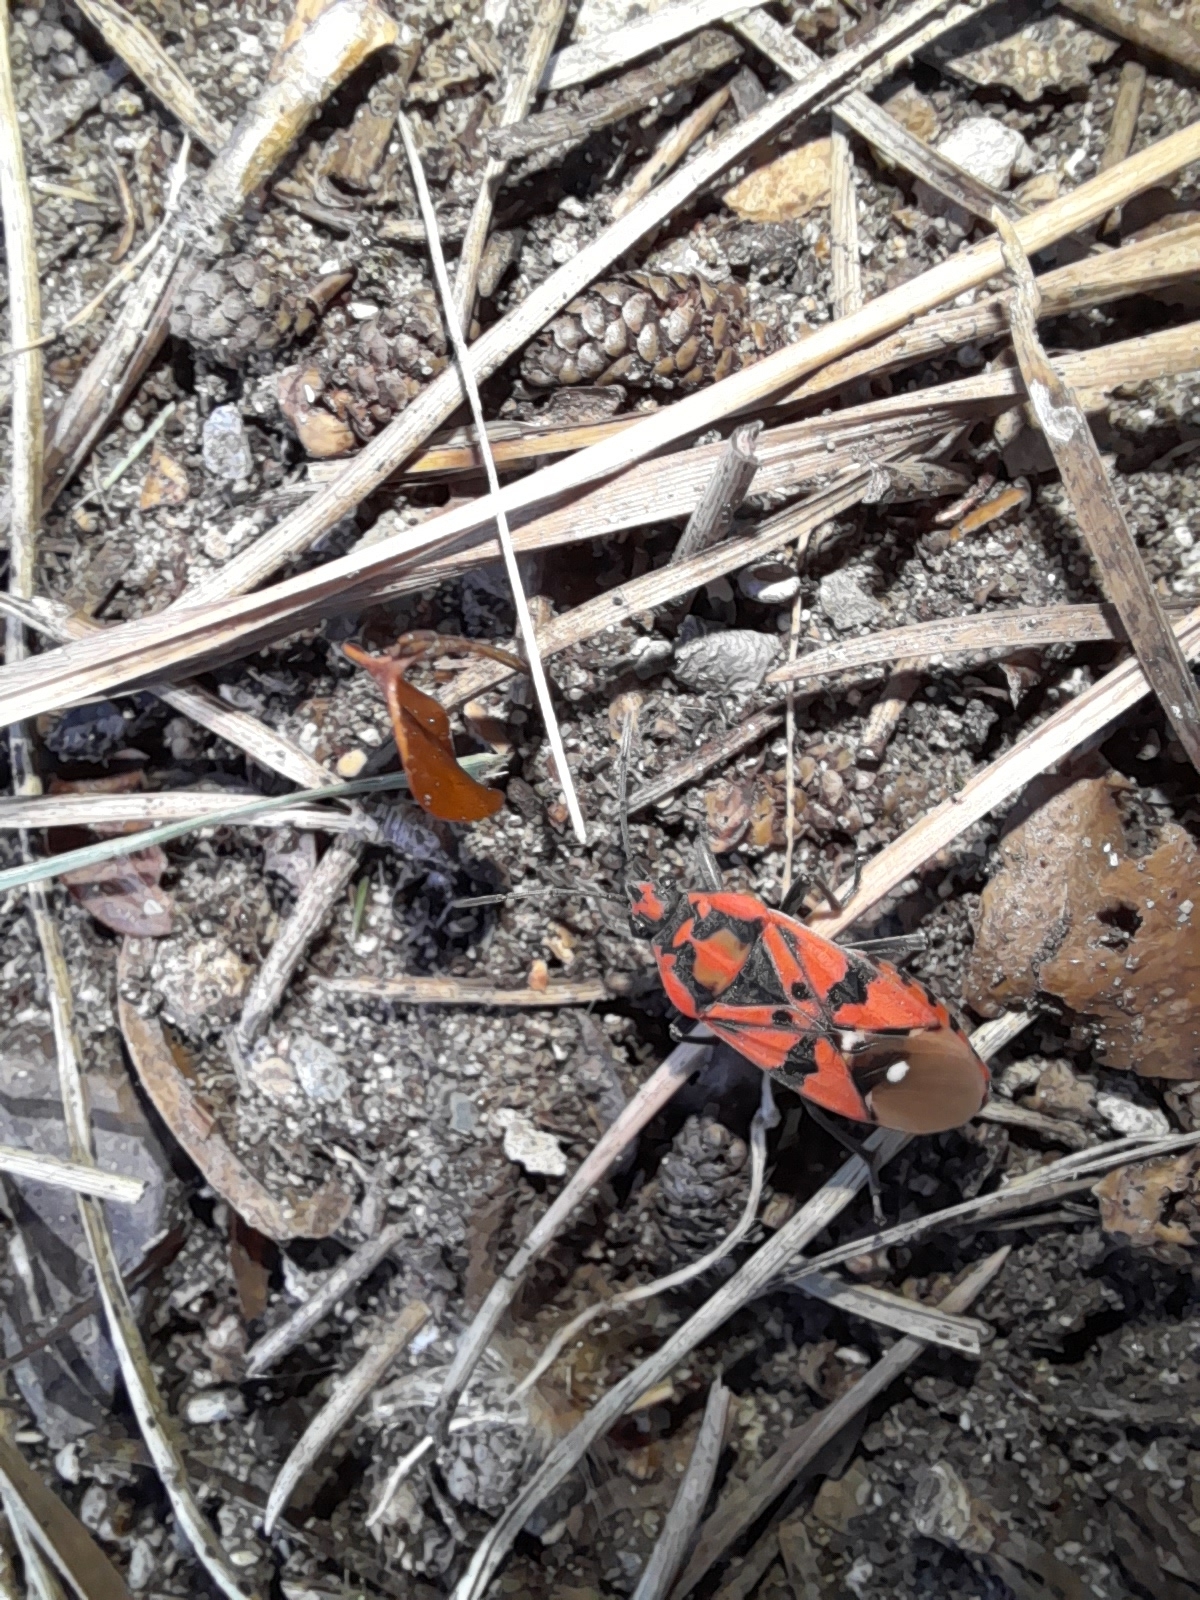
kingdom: Animalia
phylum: Arthropoda
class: Insecta
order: Hemiptera
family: Lygaeidae
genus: Spilostethus
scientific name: Spilostethus pandurus
